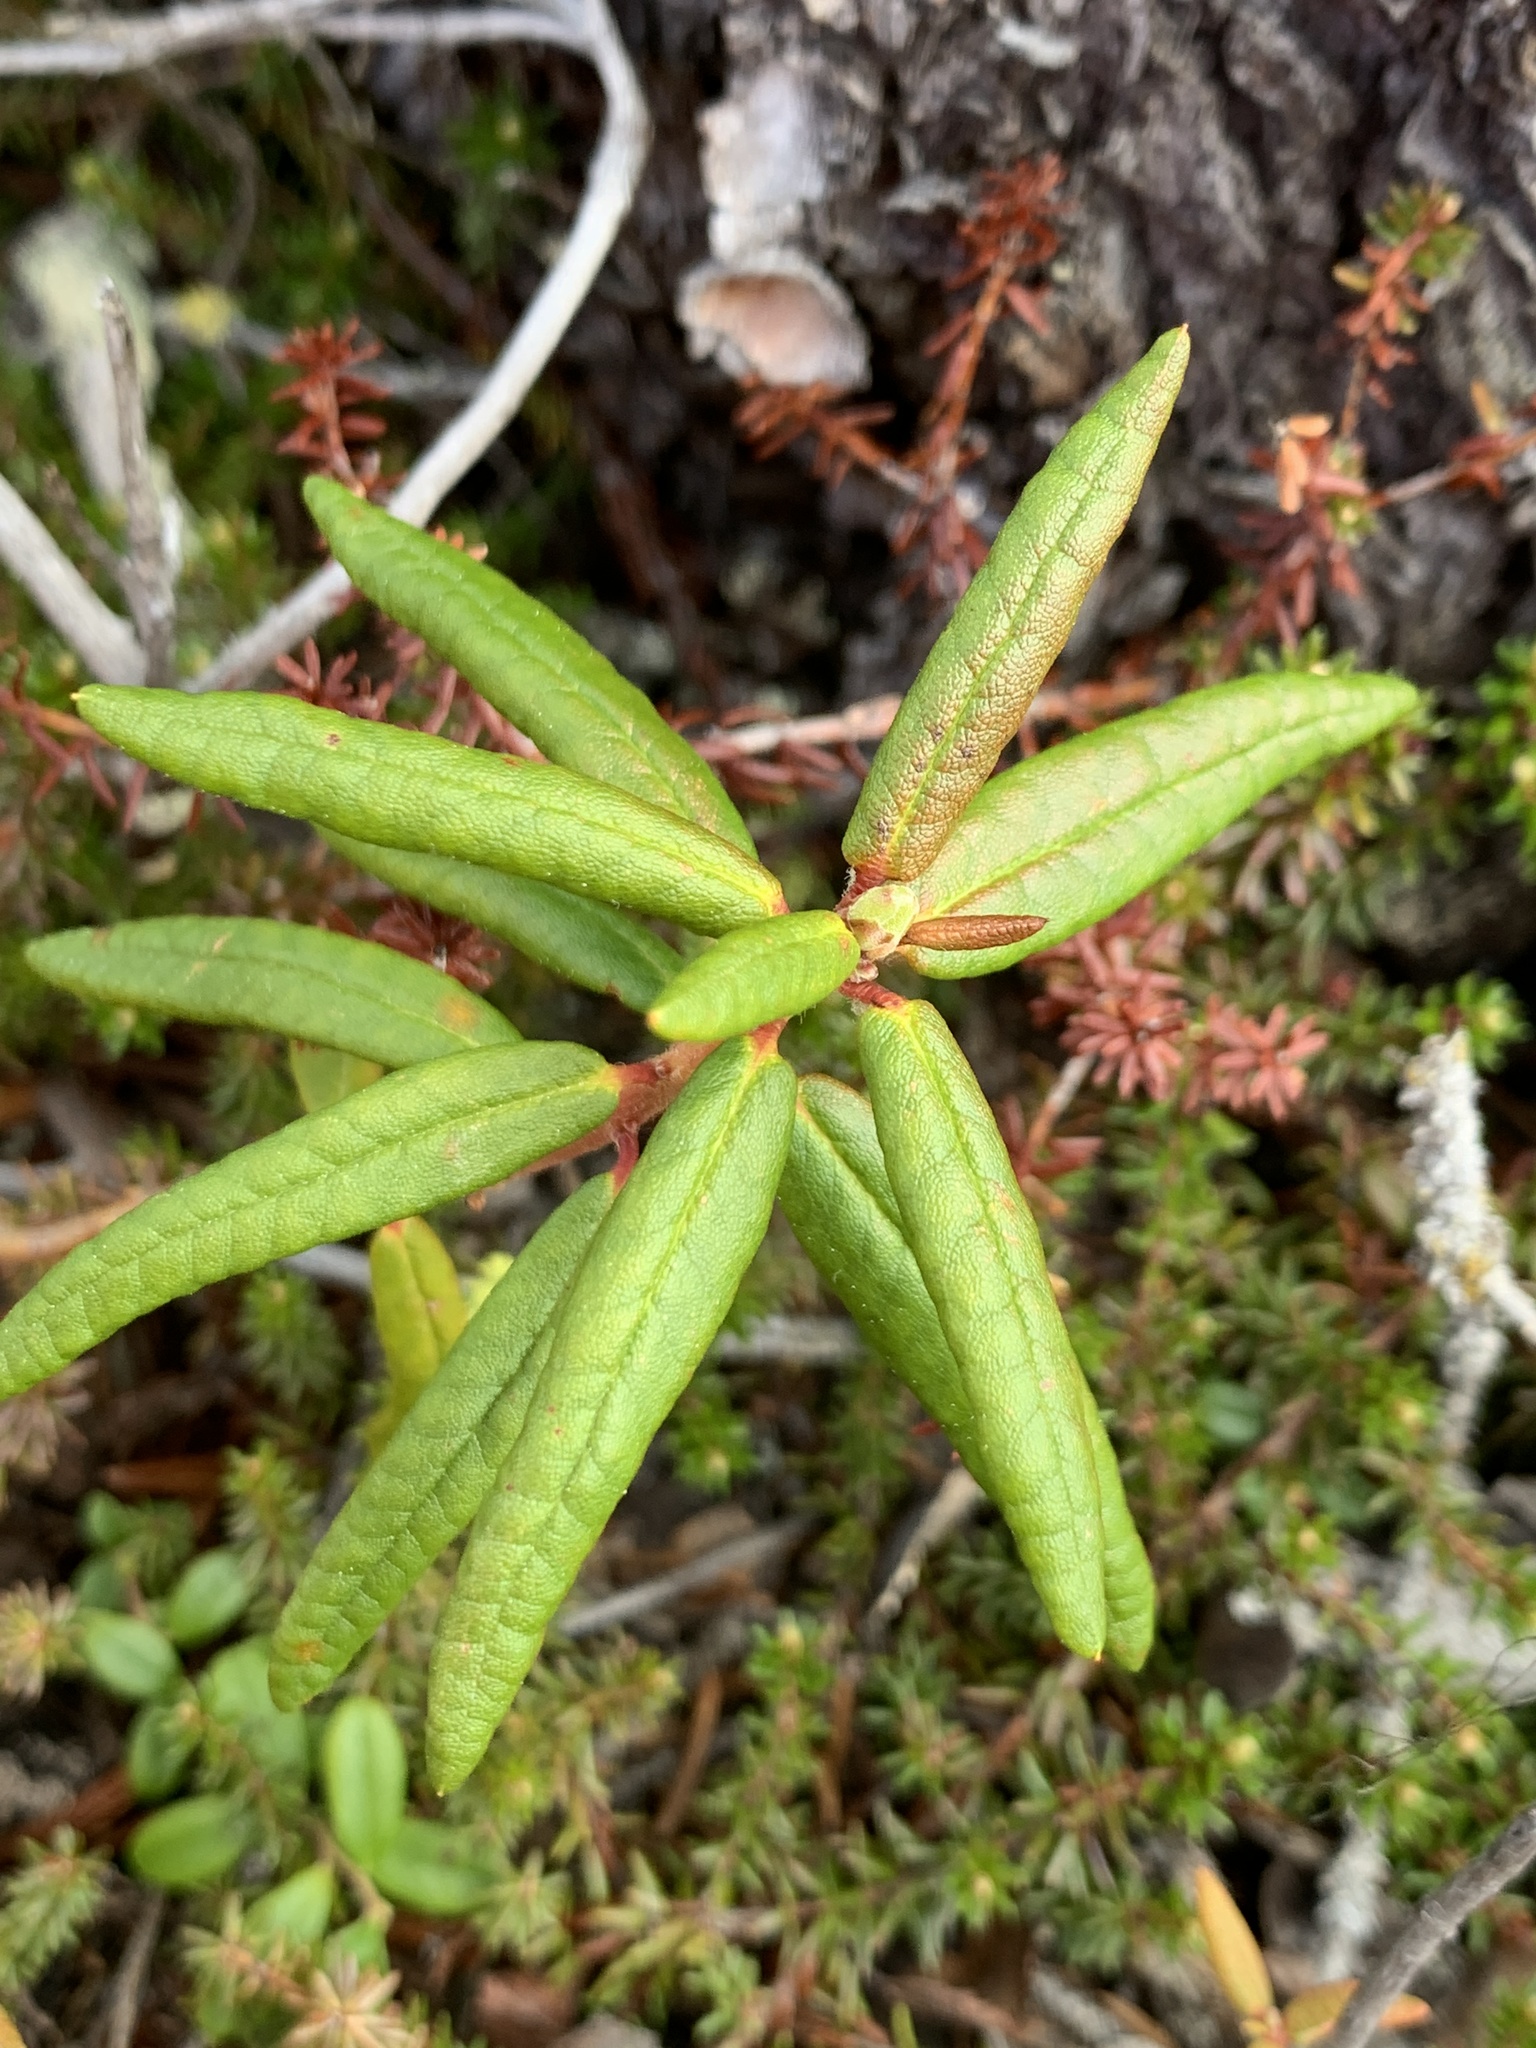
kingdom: Plantae
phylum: Tracheophyta
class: Magnoliopsida
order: Ericales
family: Ericaceae
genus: Rhododendron
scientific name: Rhododendron groenlandicum
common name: Bog labrador tea
